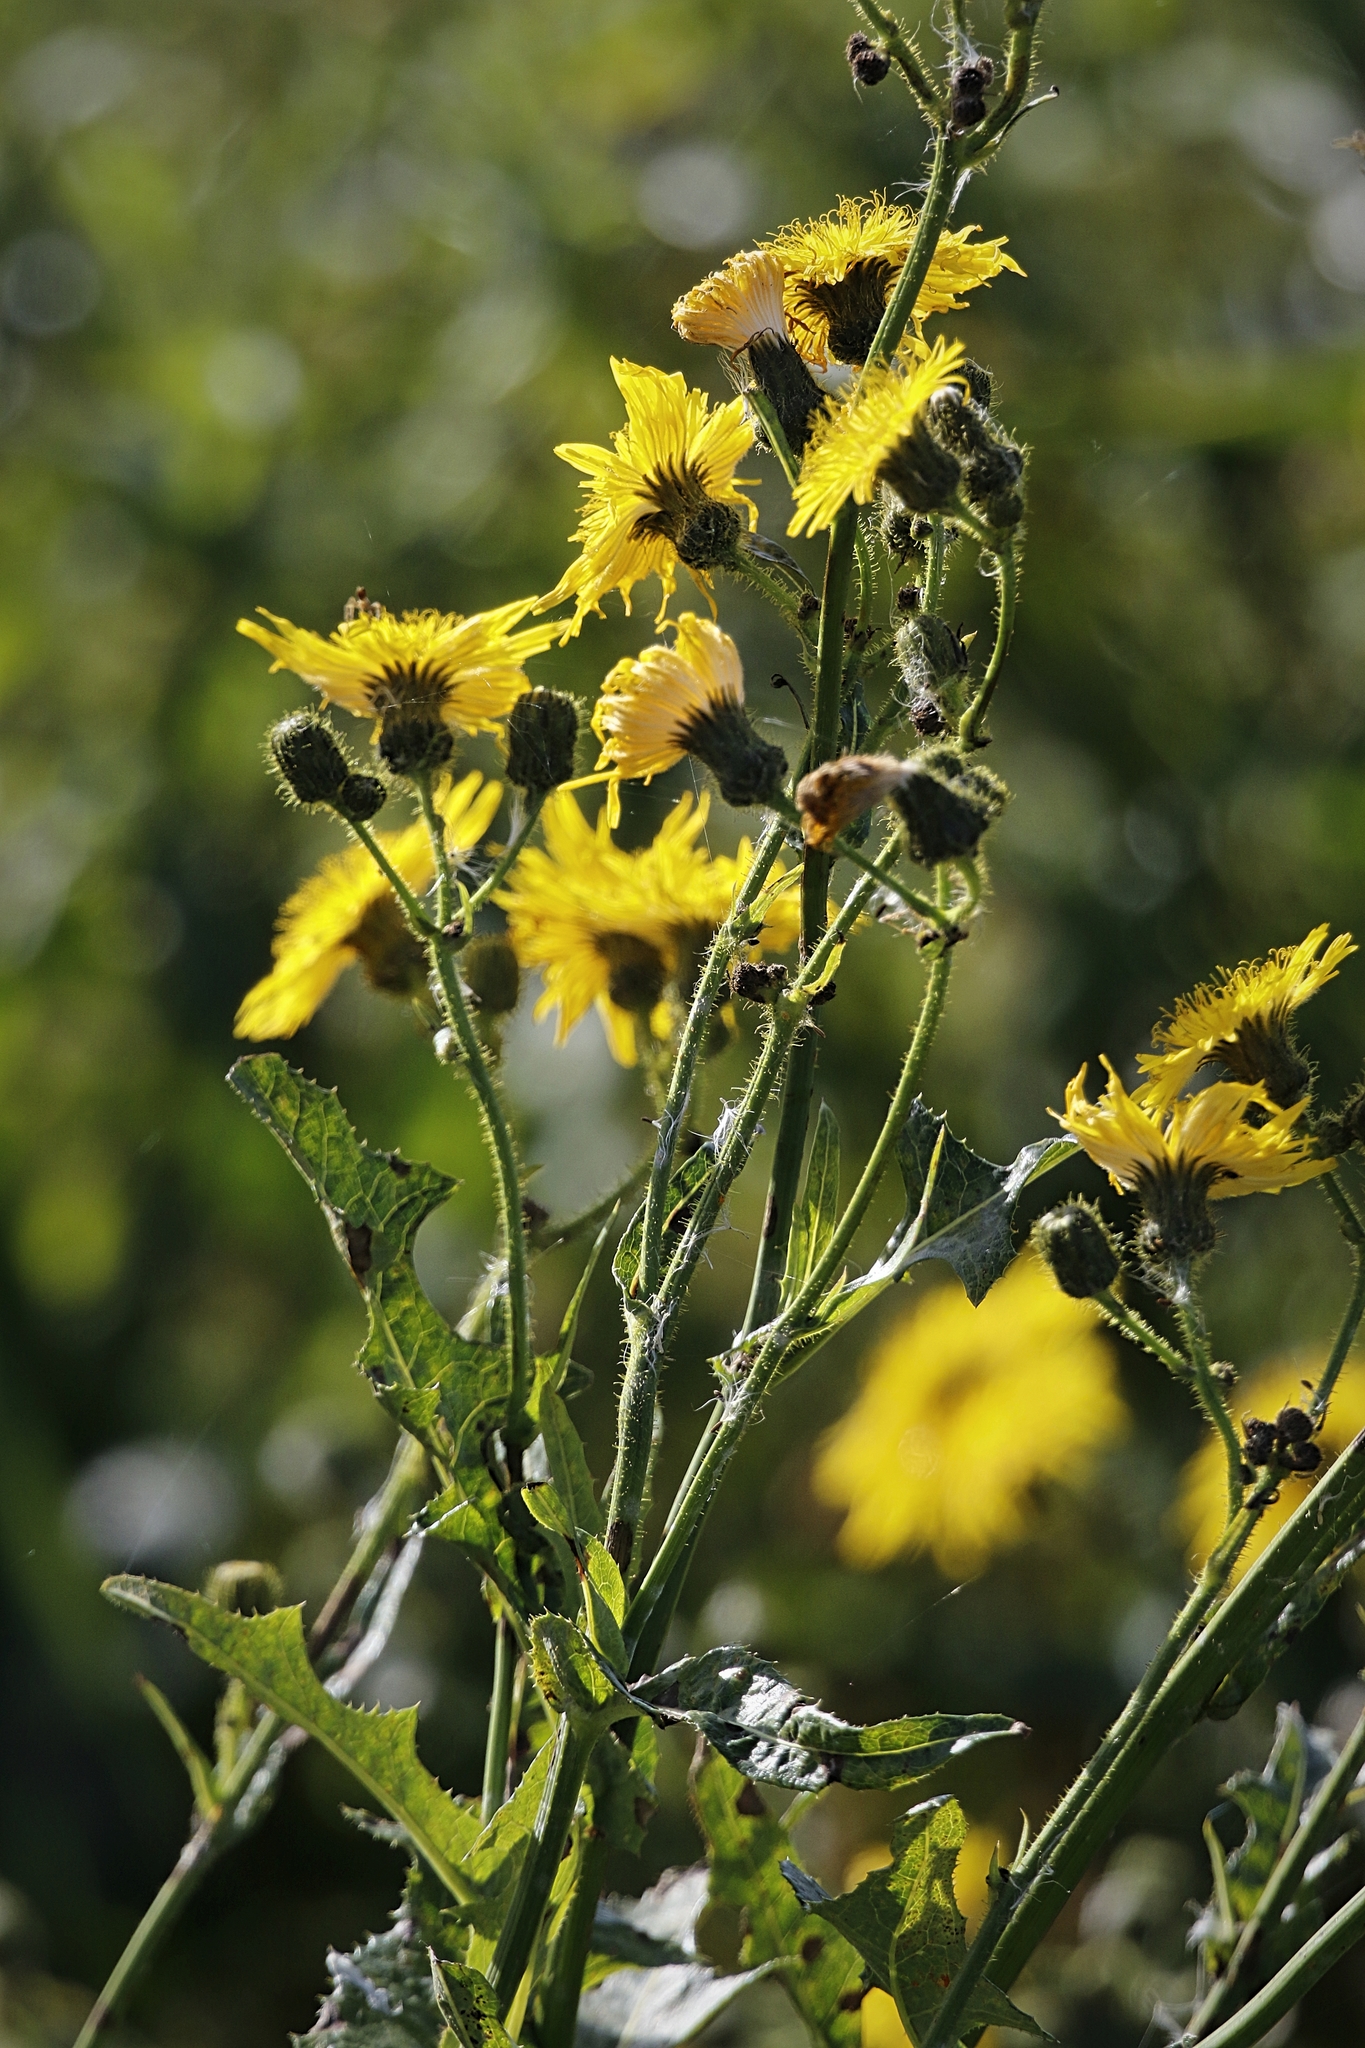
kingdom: Plantae
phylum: Tracheophyta
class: Magnoliopsida
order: Asterales
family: Asteraceae
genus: Sonchus
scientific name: Sonchus arvensis
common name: Perennial sow-thistle
